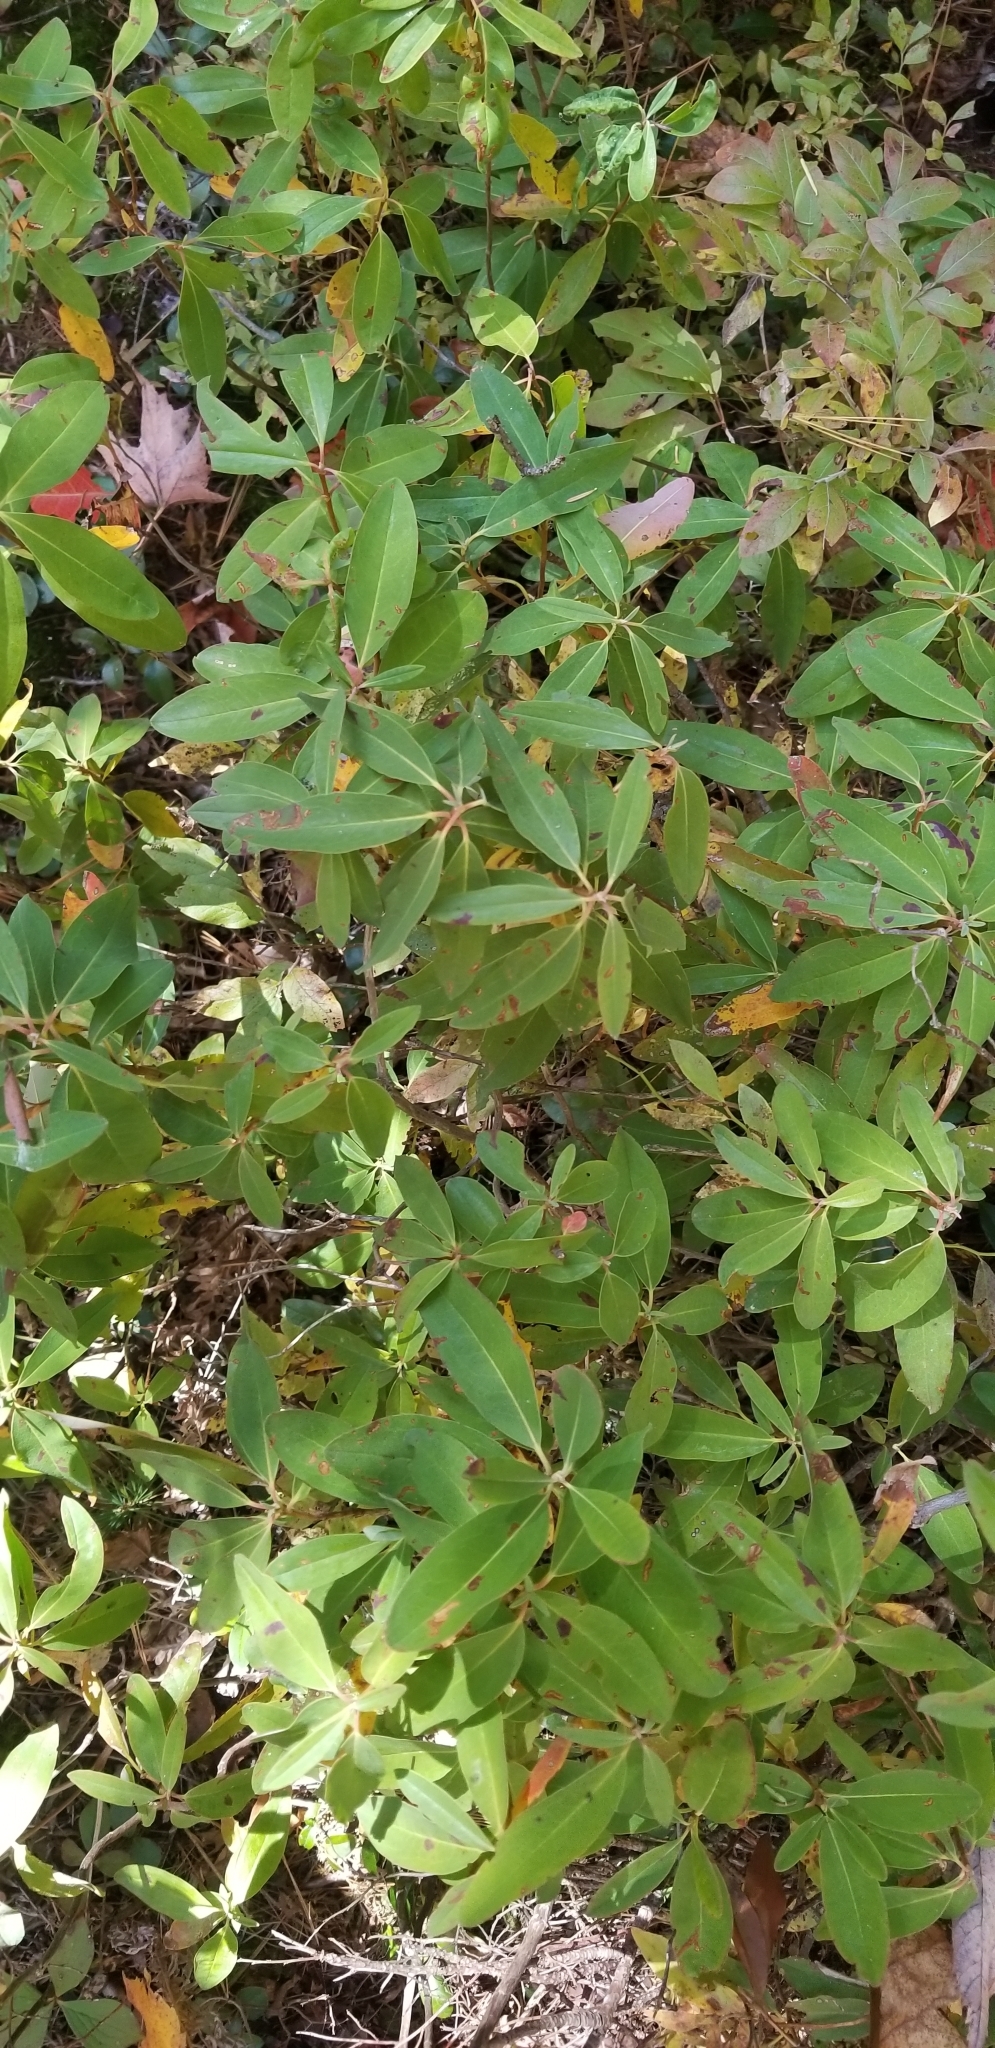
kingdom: Plantae
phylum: Tracheophyta
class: Magnoliopsida
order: Ericales
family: Ericaceae
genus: Kalmia
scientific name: Kalmia angustifolia
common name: Sheep-laurel
